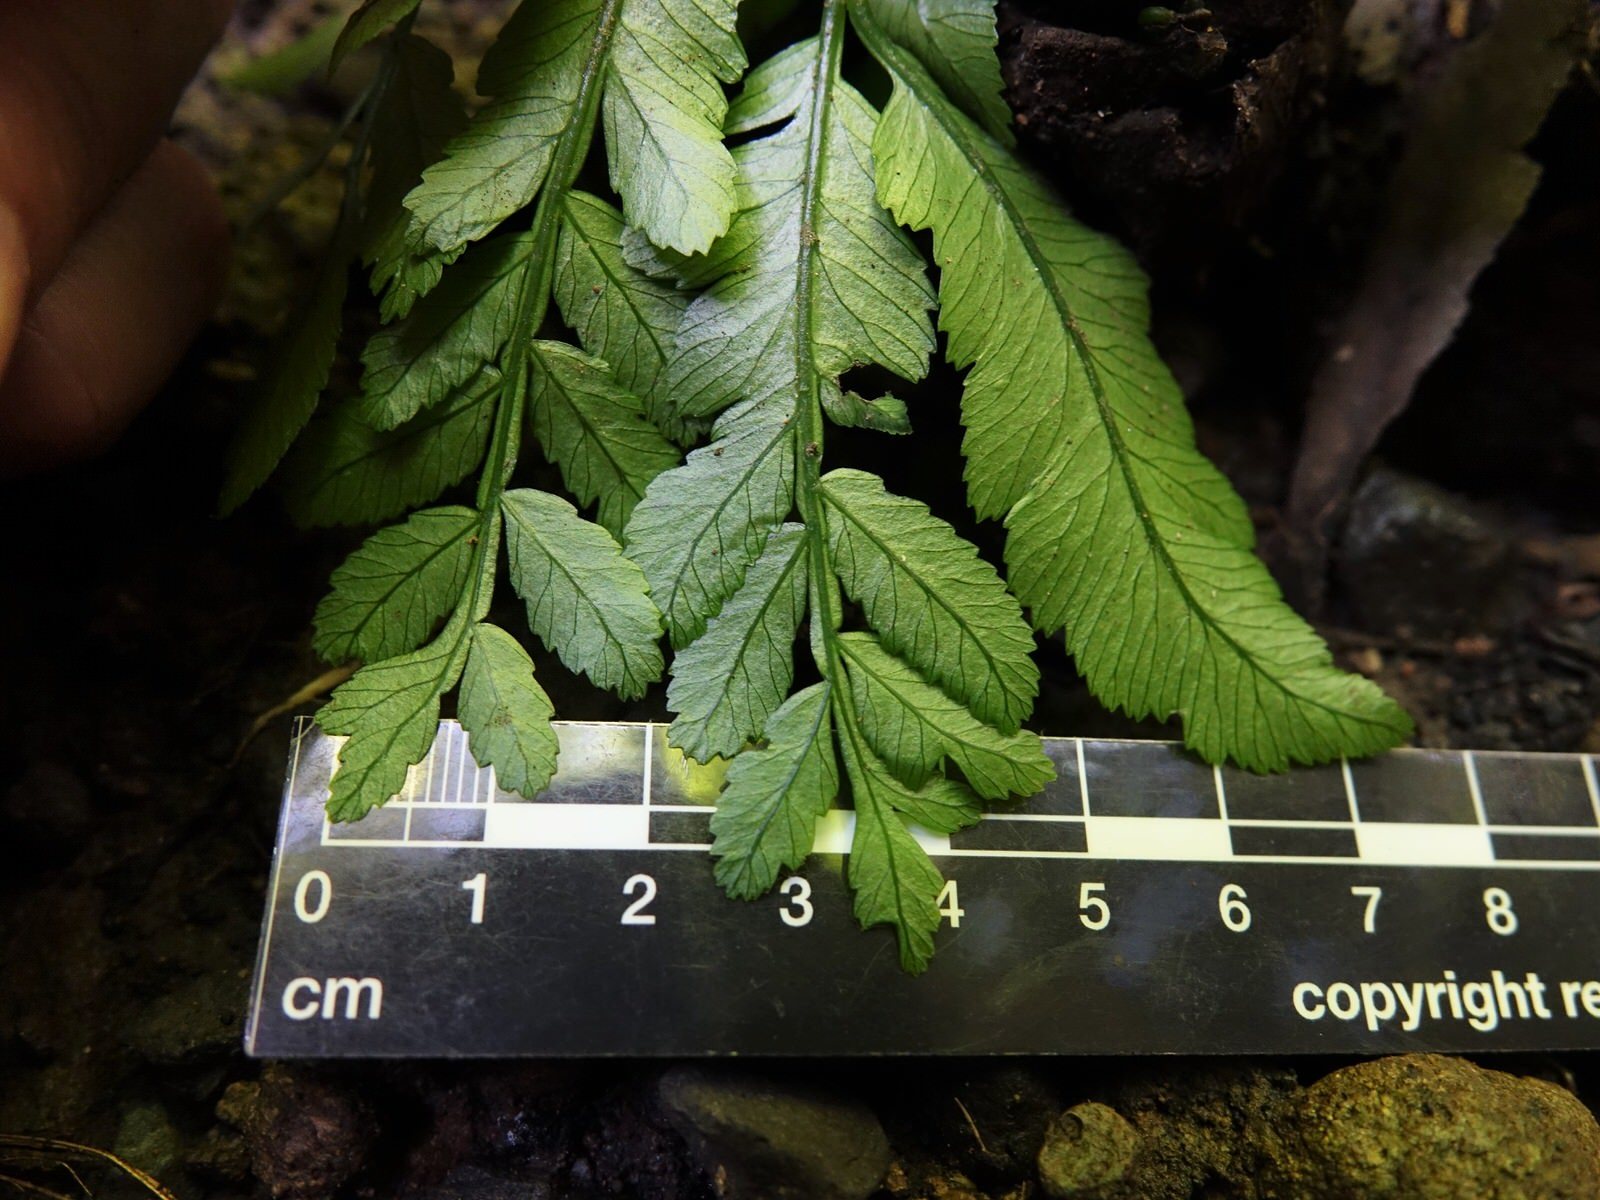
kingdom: Plantae
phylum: Tracheophyta
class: Polypodiopsida
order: Marattiales
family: Marattiaceae
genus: Ptisana
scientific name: Ptisana salicina
